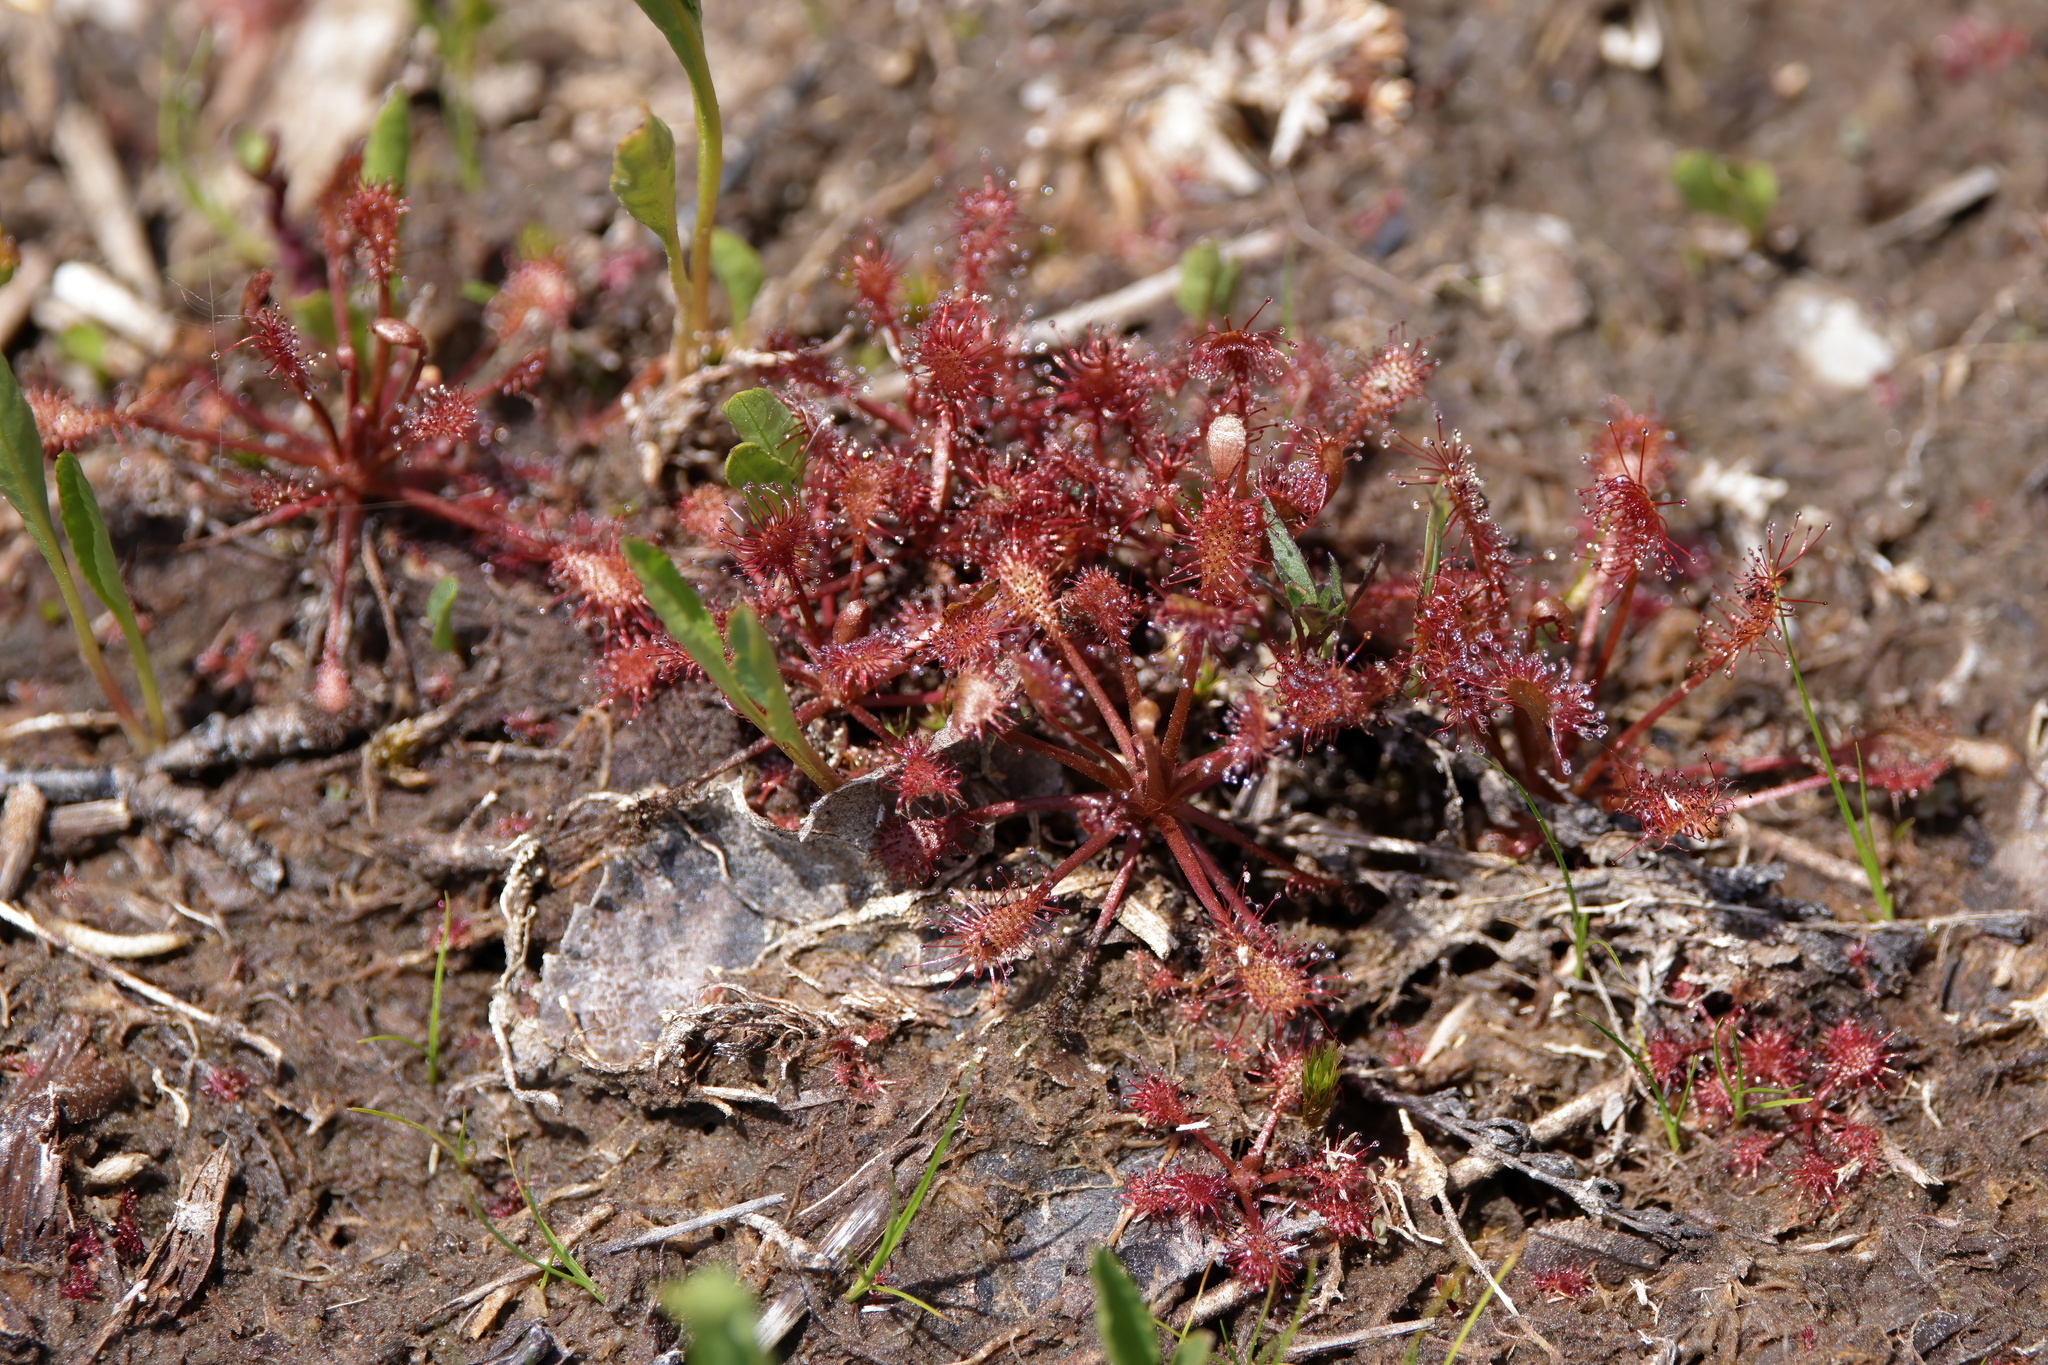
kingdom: Plantae
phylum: Tracheophyta
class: Magnoliopsida
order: Caryophyllales
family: Droseraceae
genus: Drosera
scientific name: Drosera intermedia
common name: Oblong-leaved sundew
